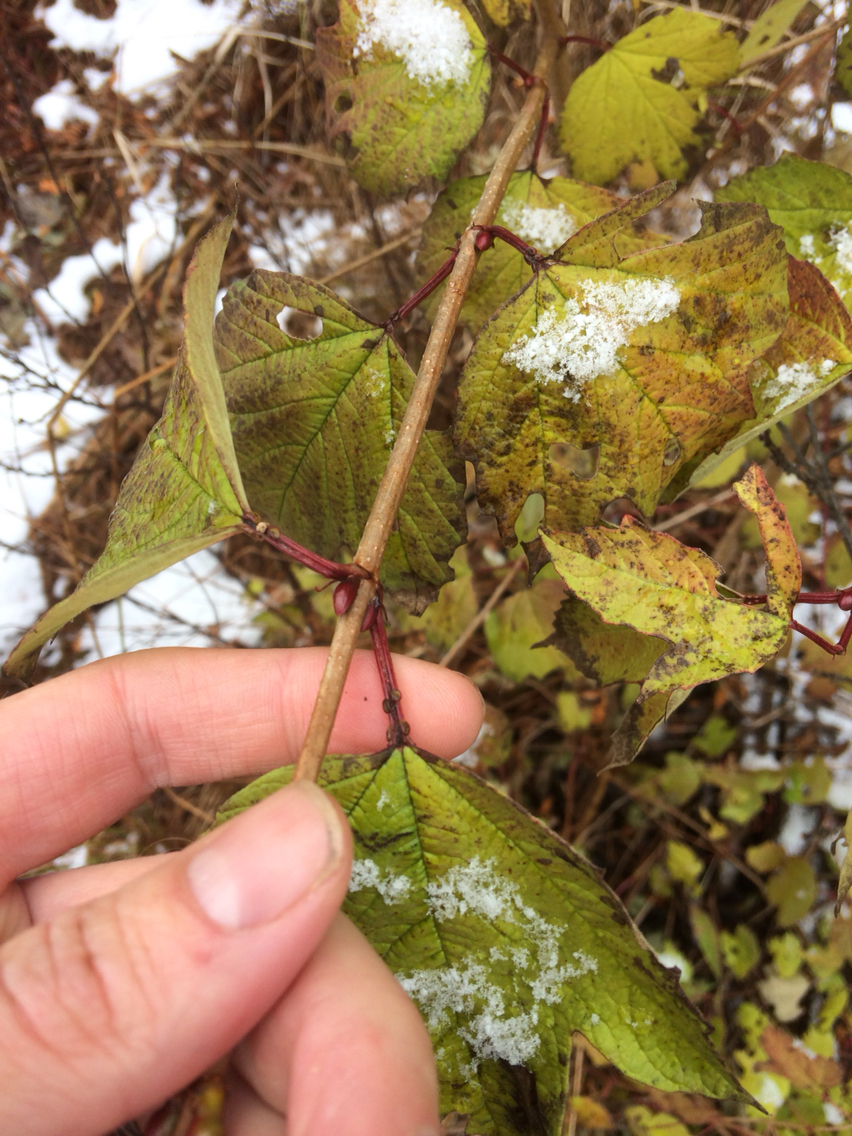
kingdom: Plantae
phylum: Tracheophyta
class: Magnoliopsida
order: Dipsacales
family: Viburnaceae
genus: Viburnum
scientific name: Viburnum opulus
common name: Guelder-rose
